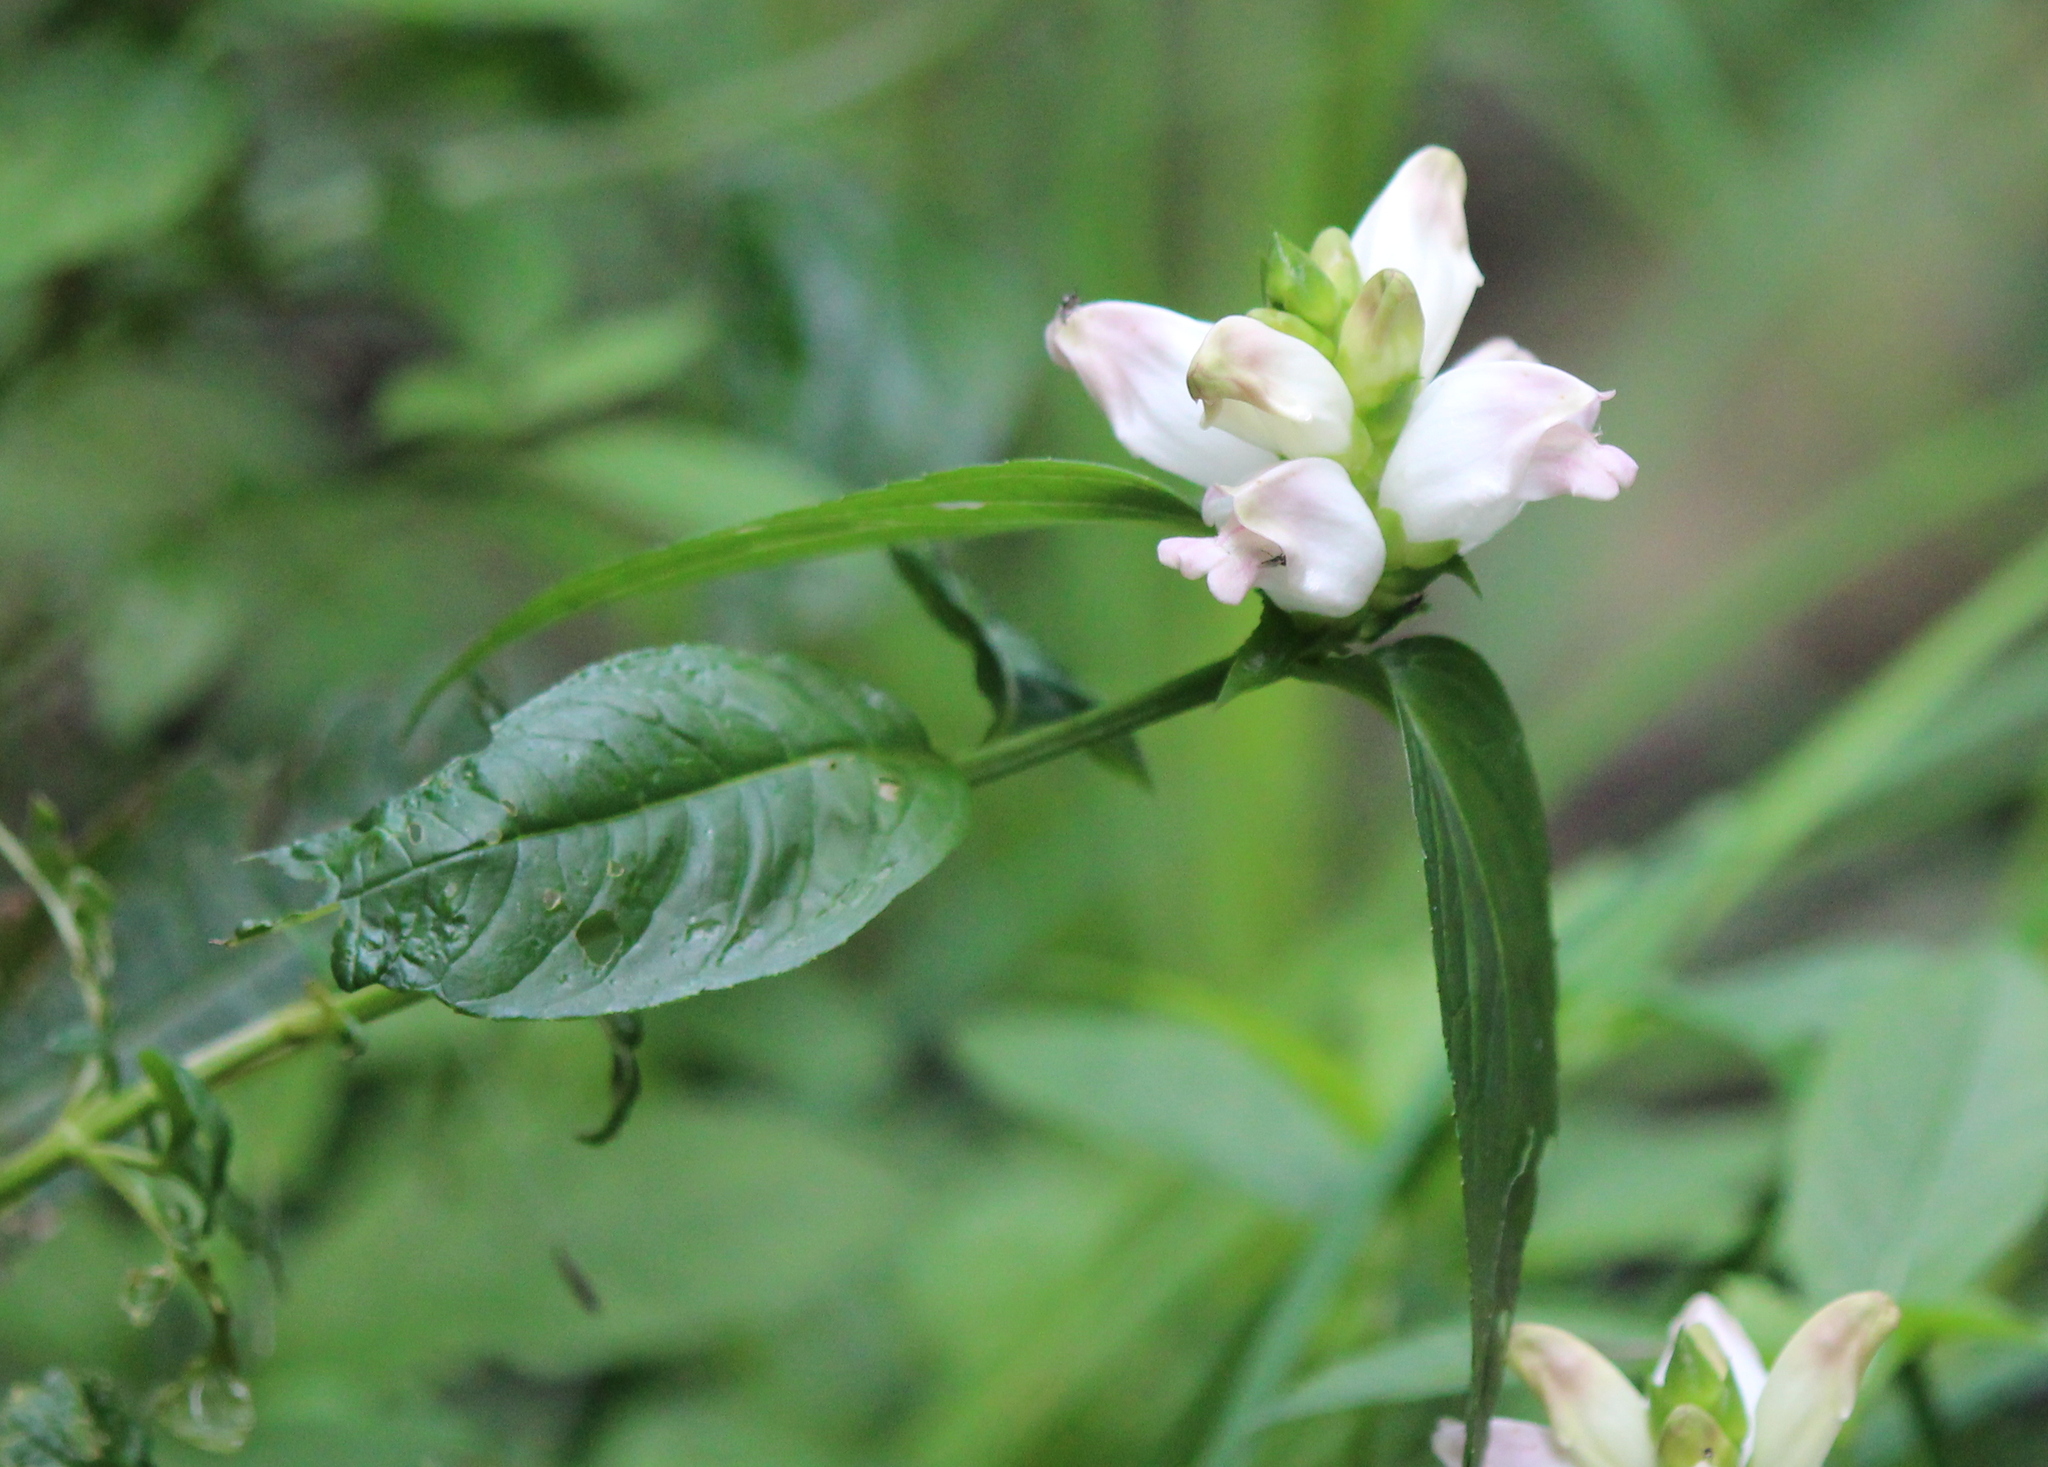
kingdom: Plantae
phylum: Tracheophyta
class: Magnoliopsida
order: Lamiales
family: Plantaginaceae
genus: Chelone
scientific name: Chelone glabra
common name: Snakehead
